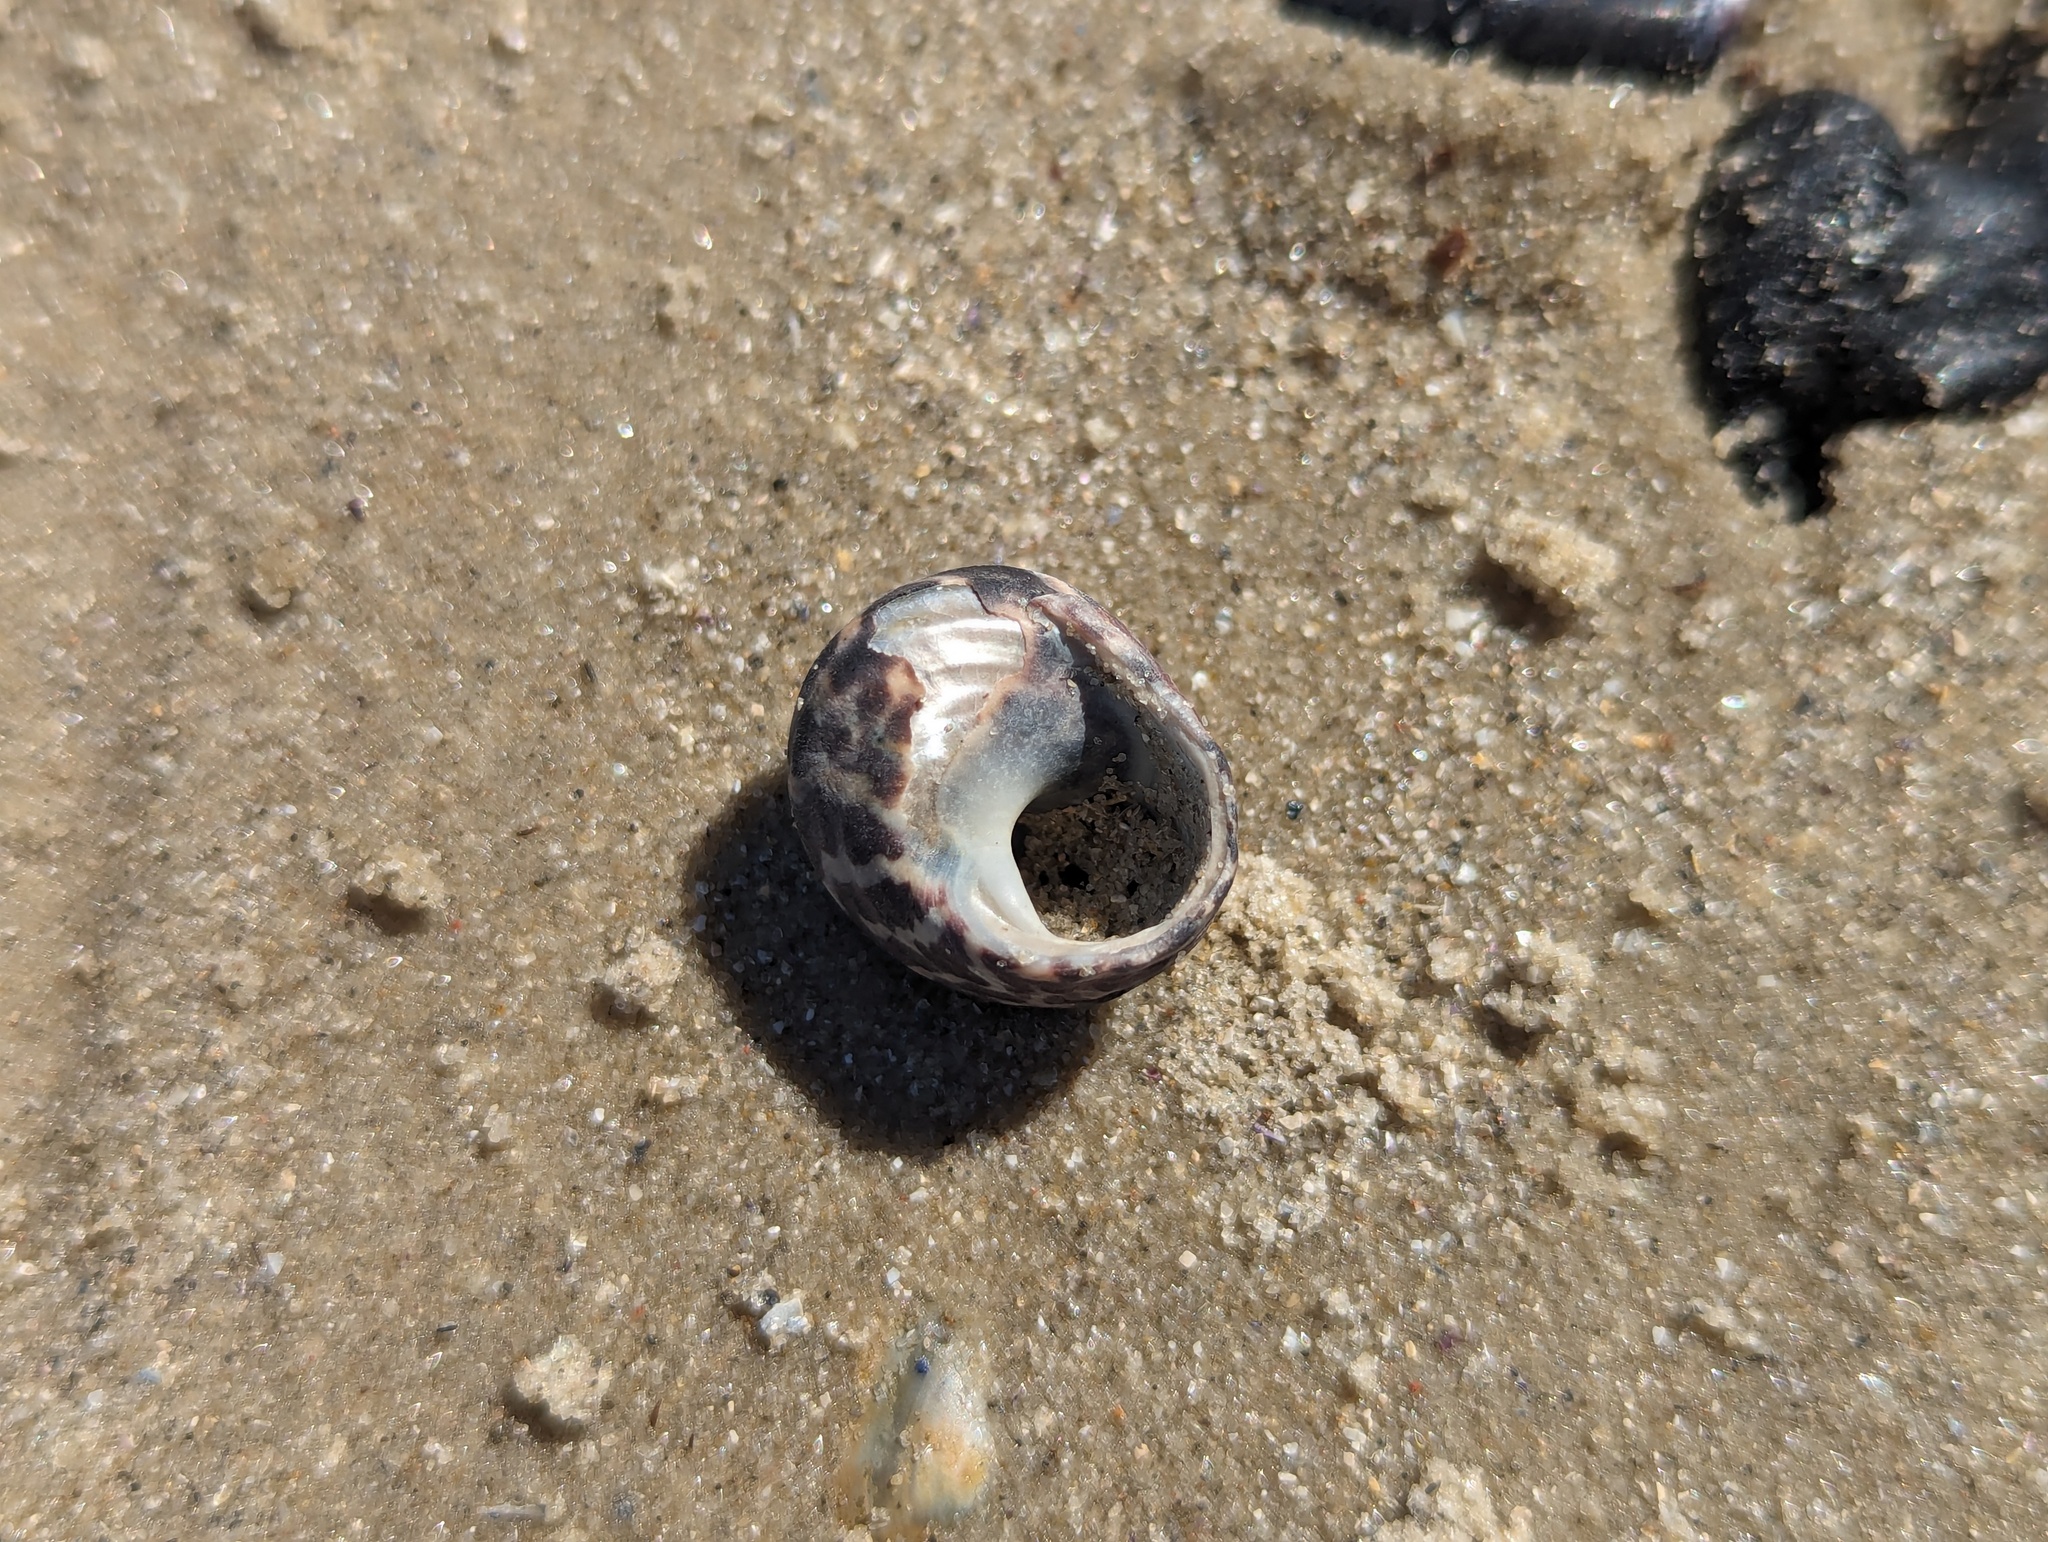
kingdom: Animalia
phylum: Mollusca
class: Gastropoda
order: Trochida
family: Trochidae
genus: Austrocochlea
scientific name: Austrocochlea porcata
